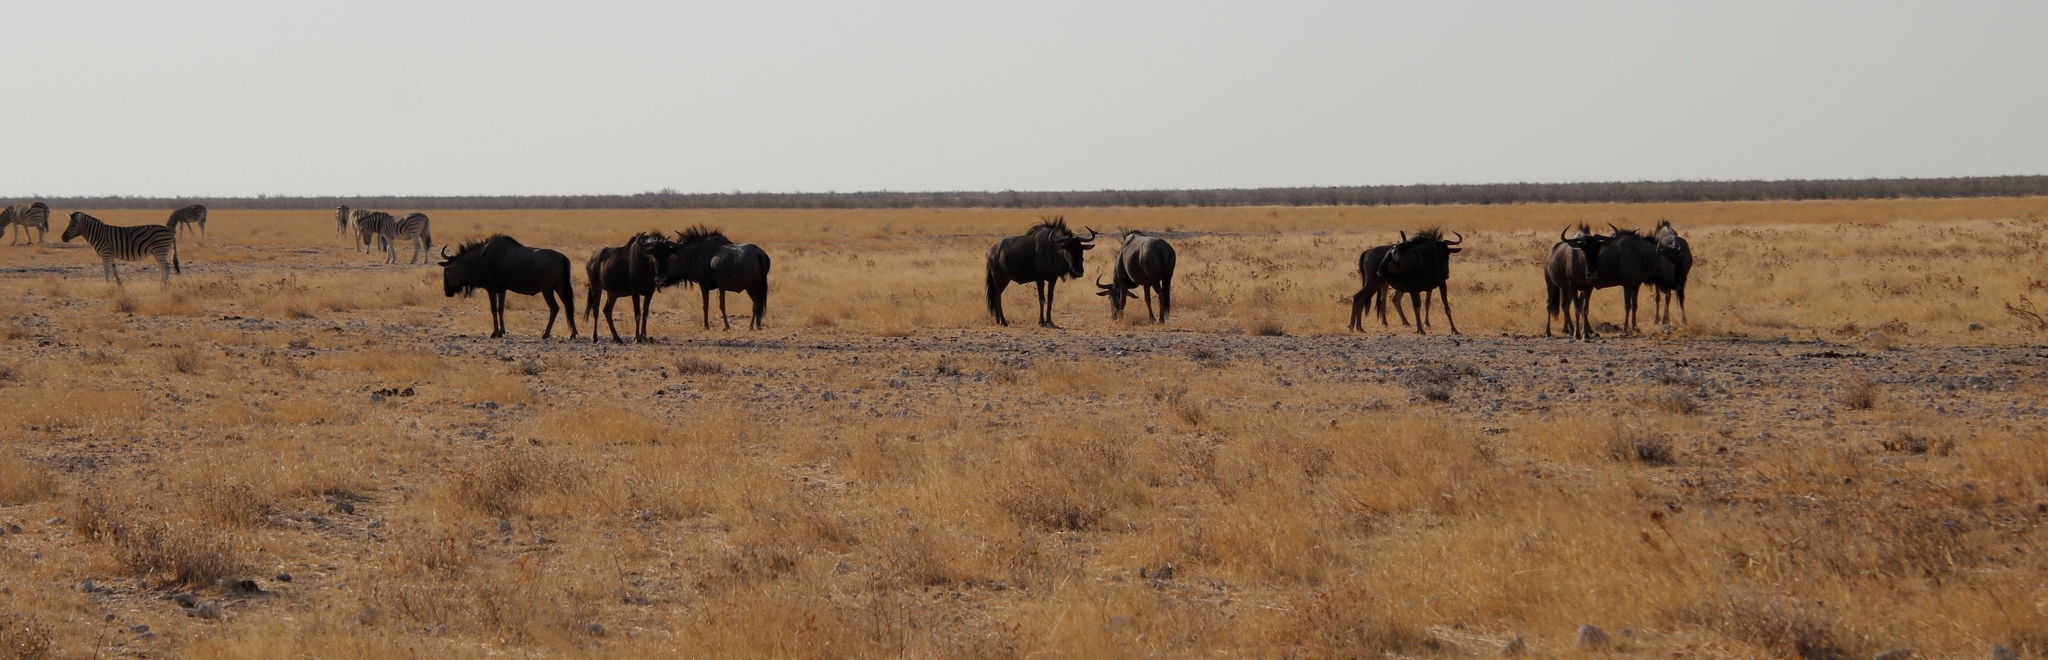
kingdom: Animalia
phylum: Chordata
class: Mammalia
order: Artiodactyla
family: Bovidae
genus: Connochaetes
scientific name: Connochaetes taurinus
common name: Blue wildebeest
